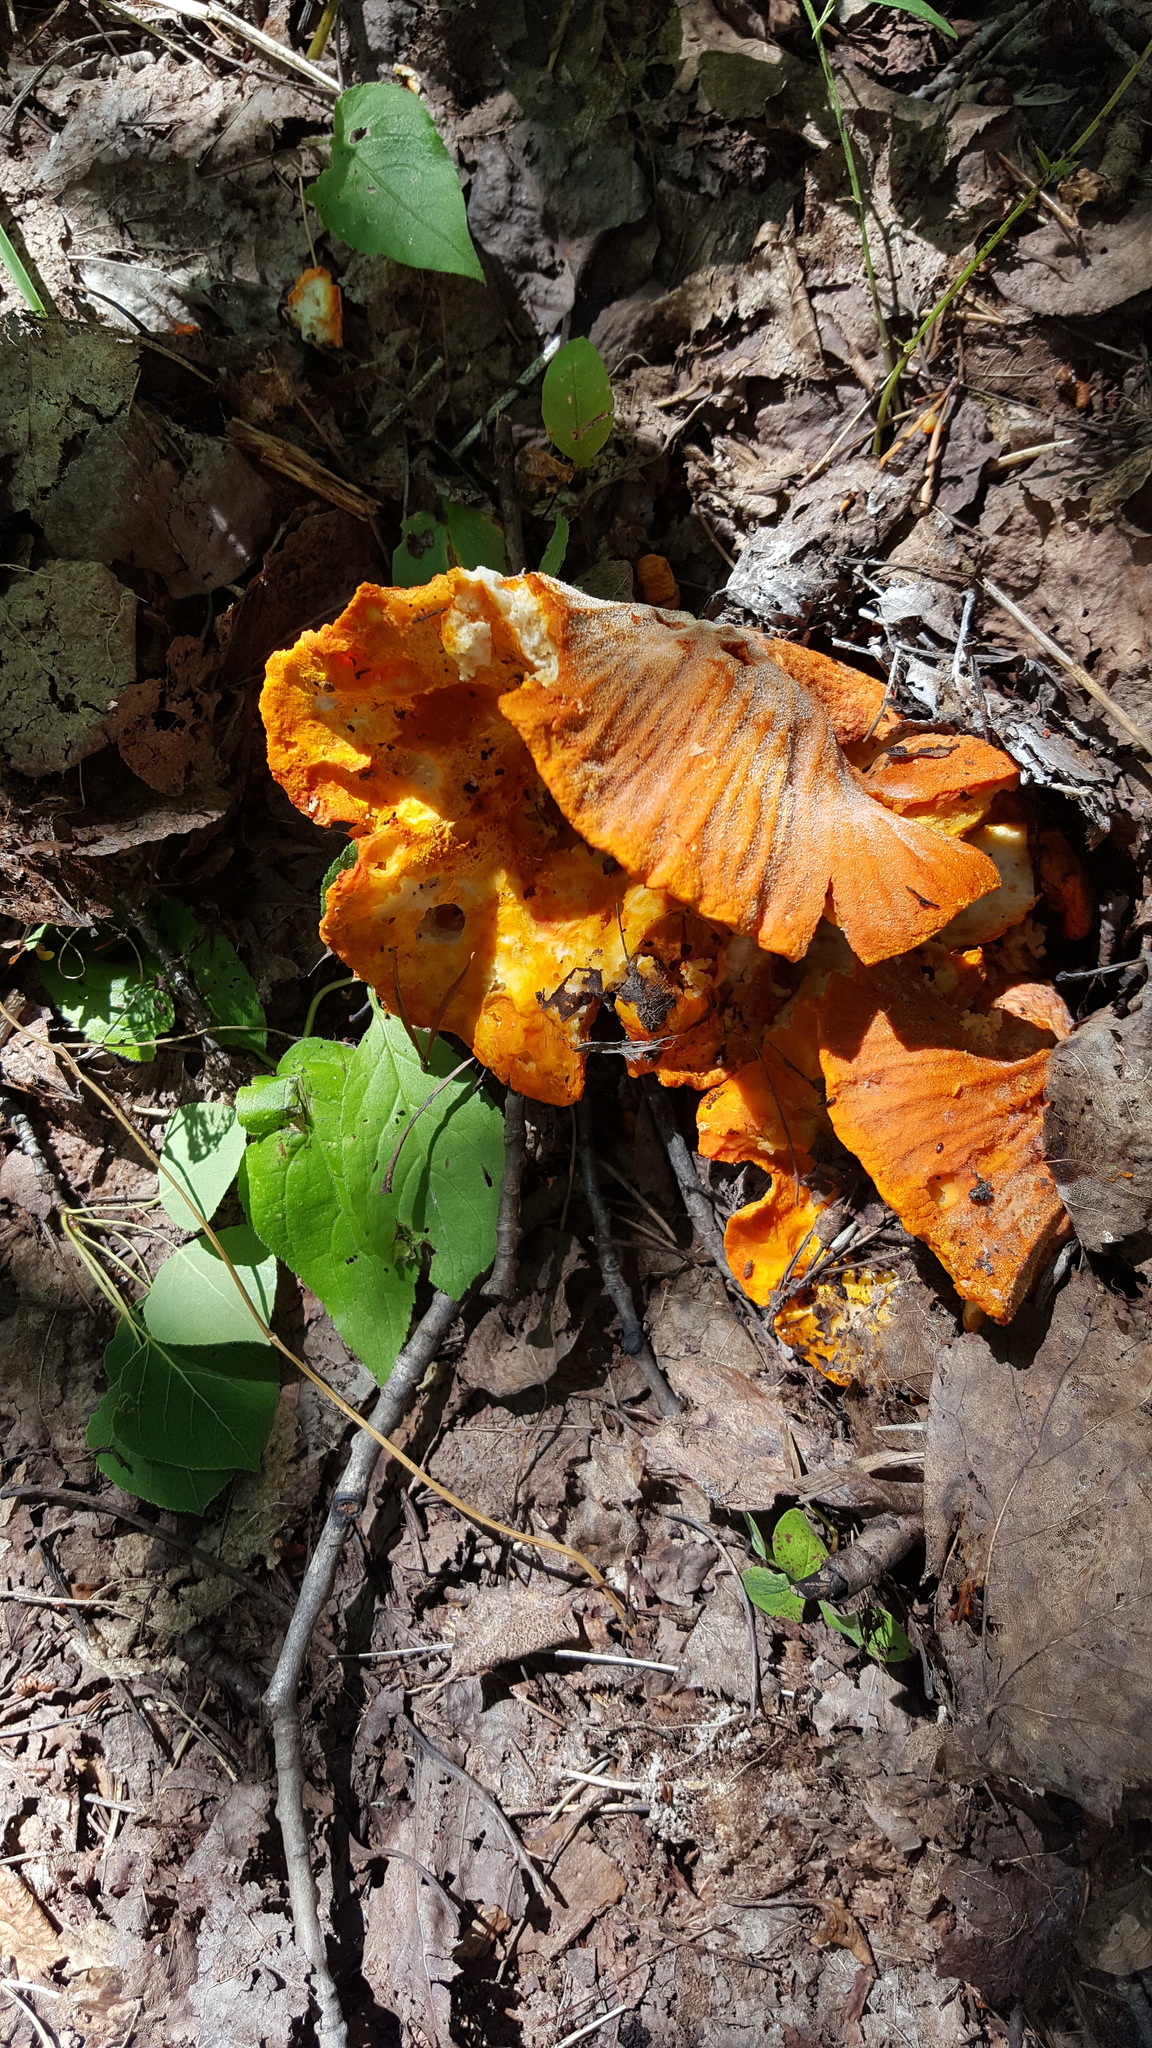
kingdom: Fungi
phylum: Ascomycota
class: Sordariomycetes
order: Hypocreales
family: Hypocreaceae
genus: Hypomyces
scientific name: Hypomyces lactifluorum
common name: Lobster mushroom
